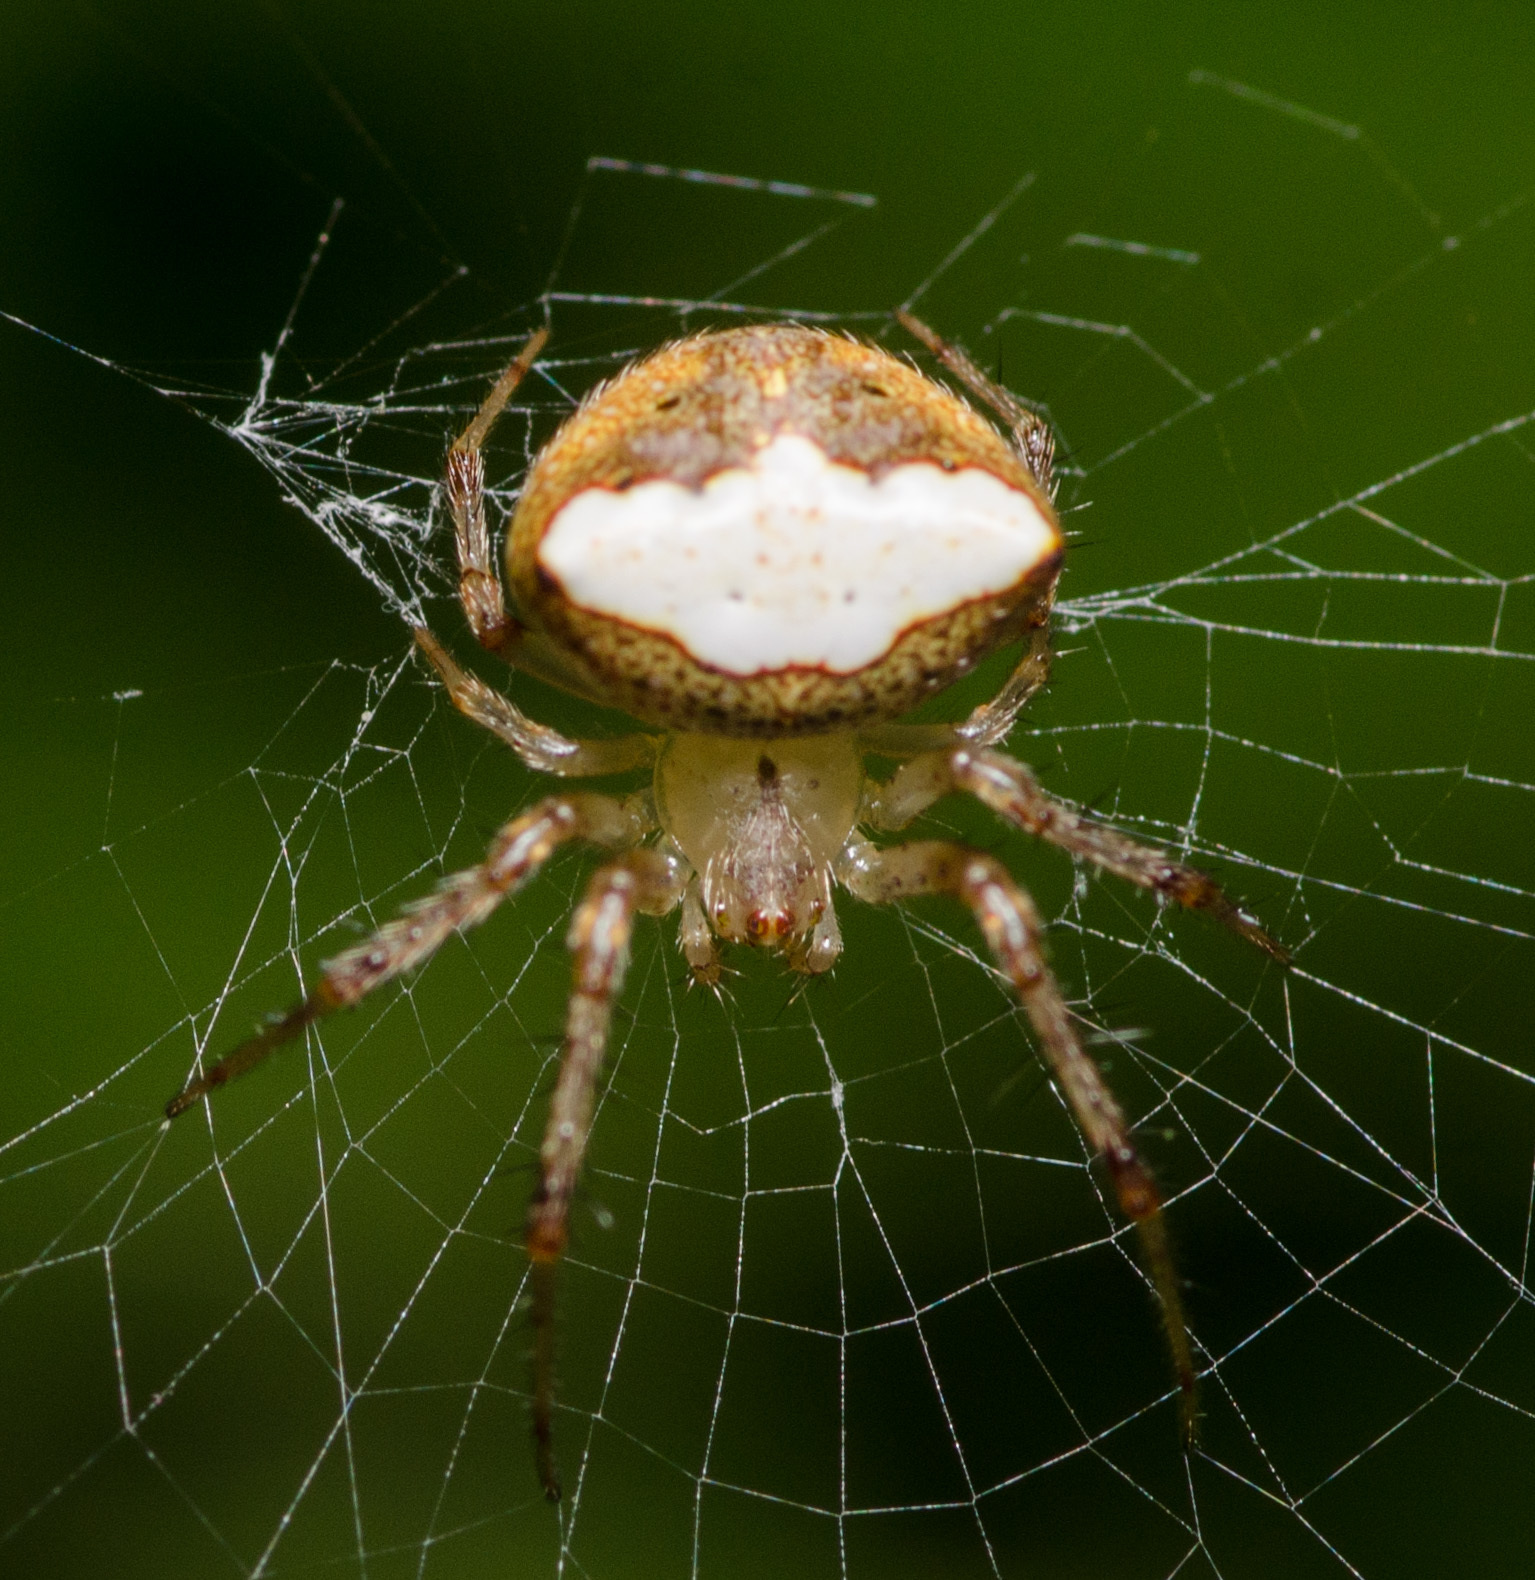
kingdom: Animalia
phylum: Arthropoda
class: Arachnida
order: Araneae
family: Araneidae
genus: Araneus
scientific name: Araneus miniatus
